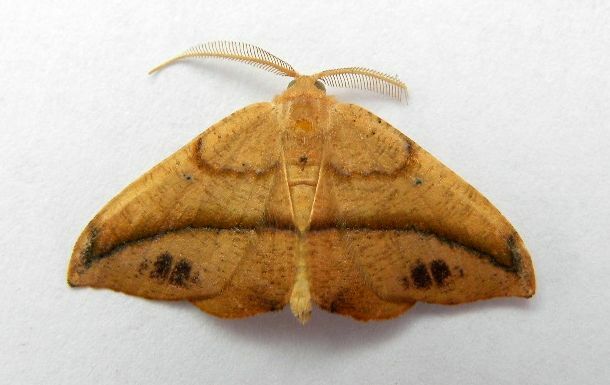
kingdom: Animalia
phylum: Arthropoda
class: Insecta
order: Lepidoptera
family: Geometridae
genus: Patalene
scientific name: Patalene olyzonaria
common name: Juniper geometer moth
